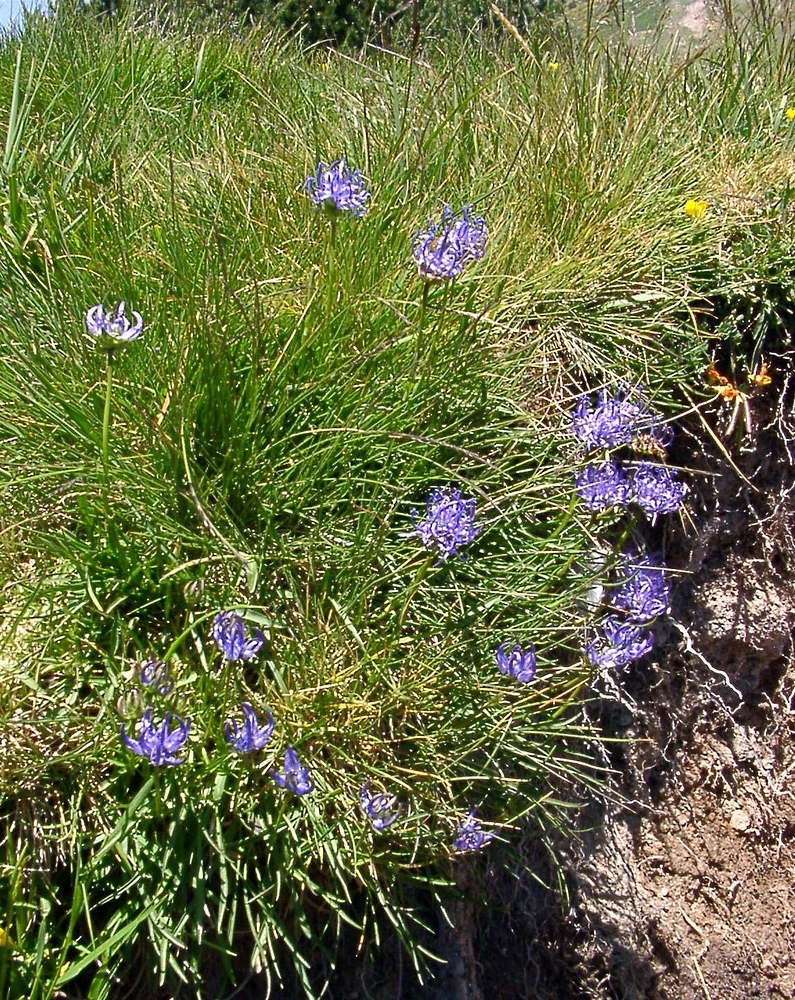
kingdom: Plantae
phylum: Tracheophyta
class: Magnoliopsida
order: Asterales
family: Campanulaceae
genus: Phyteuma
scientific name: Phyteuma hemisphaericum
